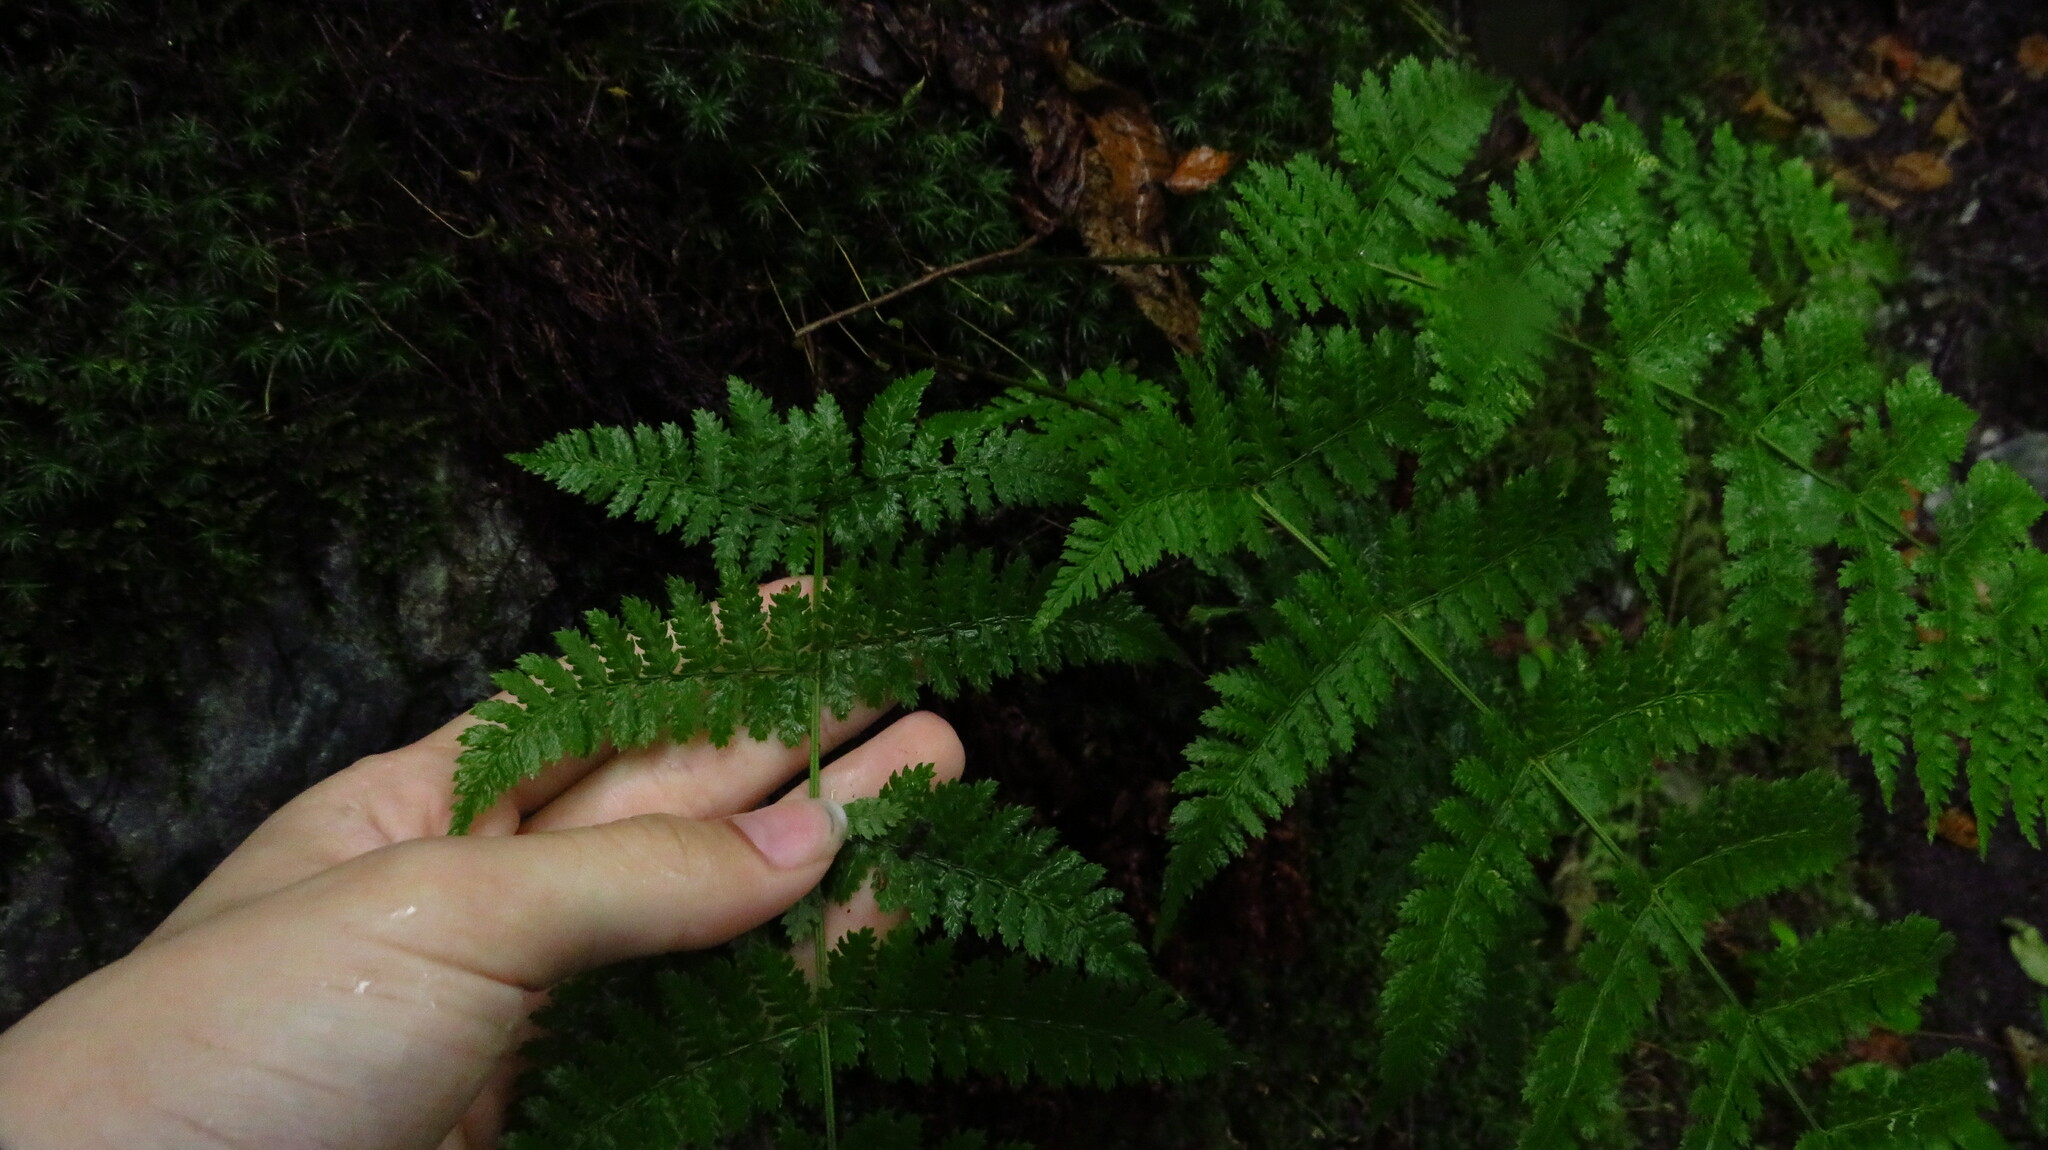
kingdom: Plantae
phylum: Tracheophyta
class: Polypodiopsida
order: Polypodiales
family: Dryopteridaceae
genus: Dryopteris
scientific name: Dryopteris intermedia
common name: Evergreen wood fern
